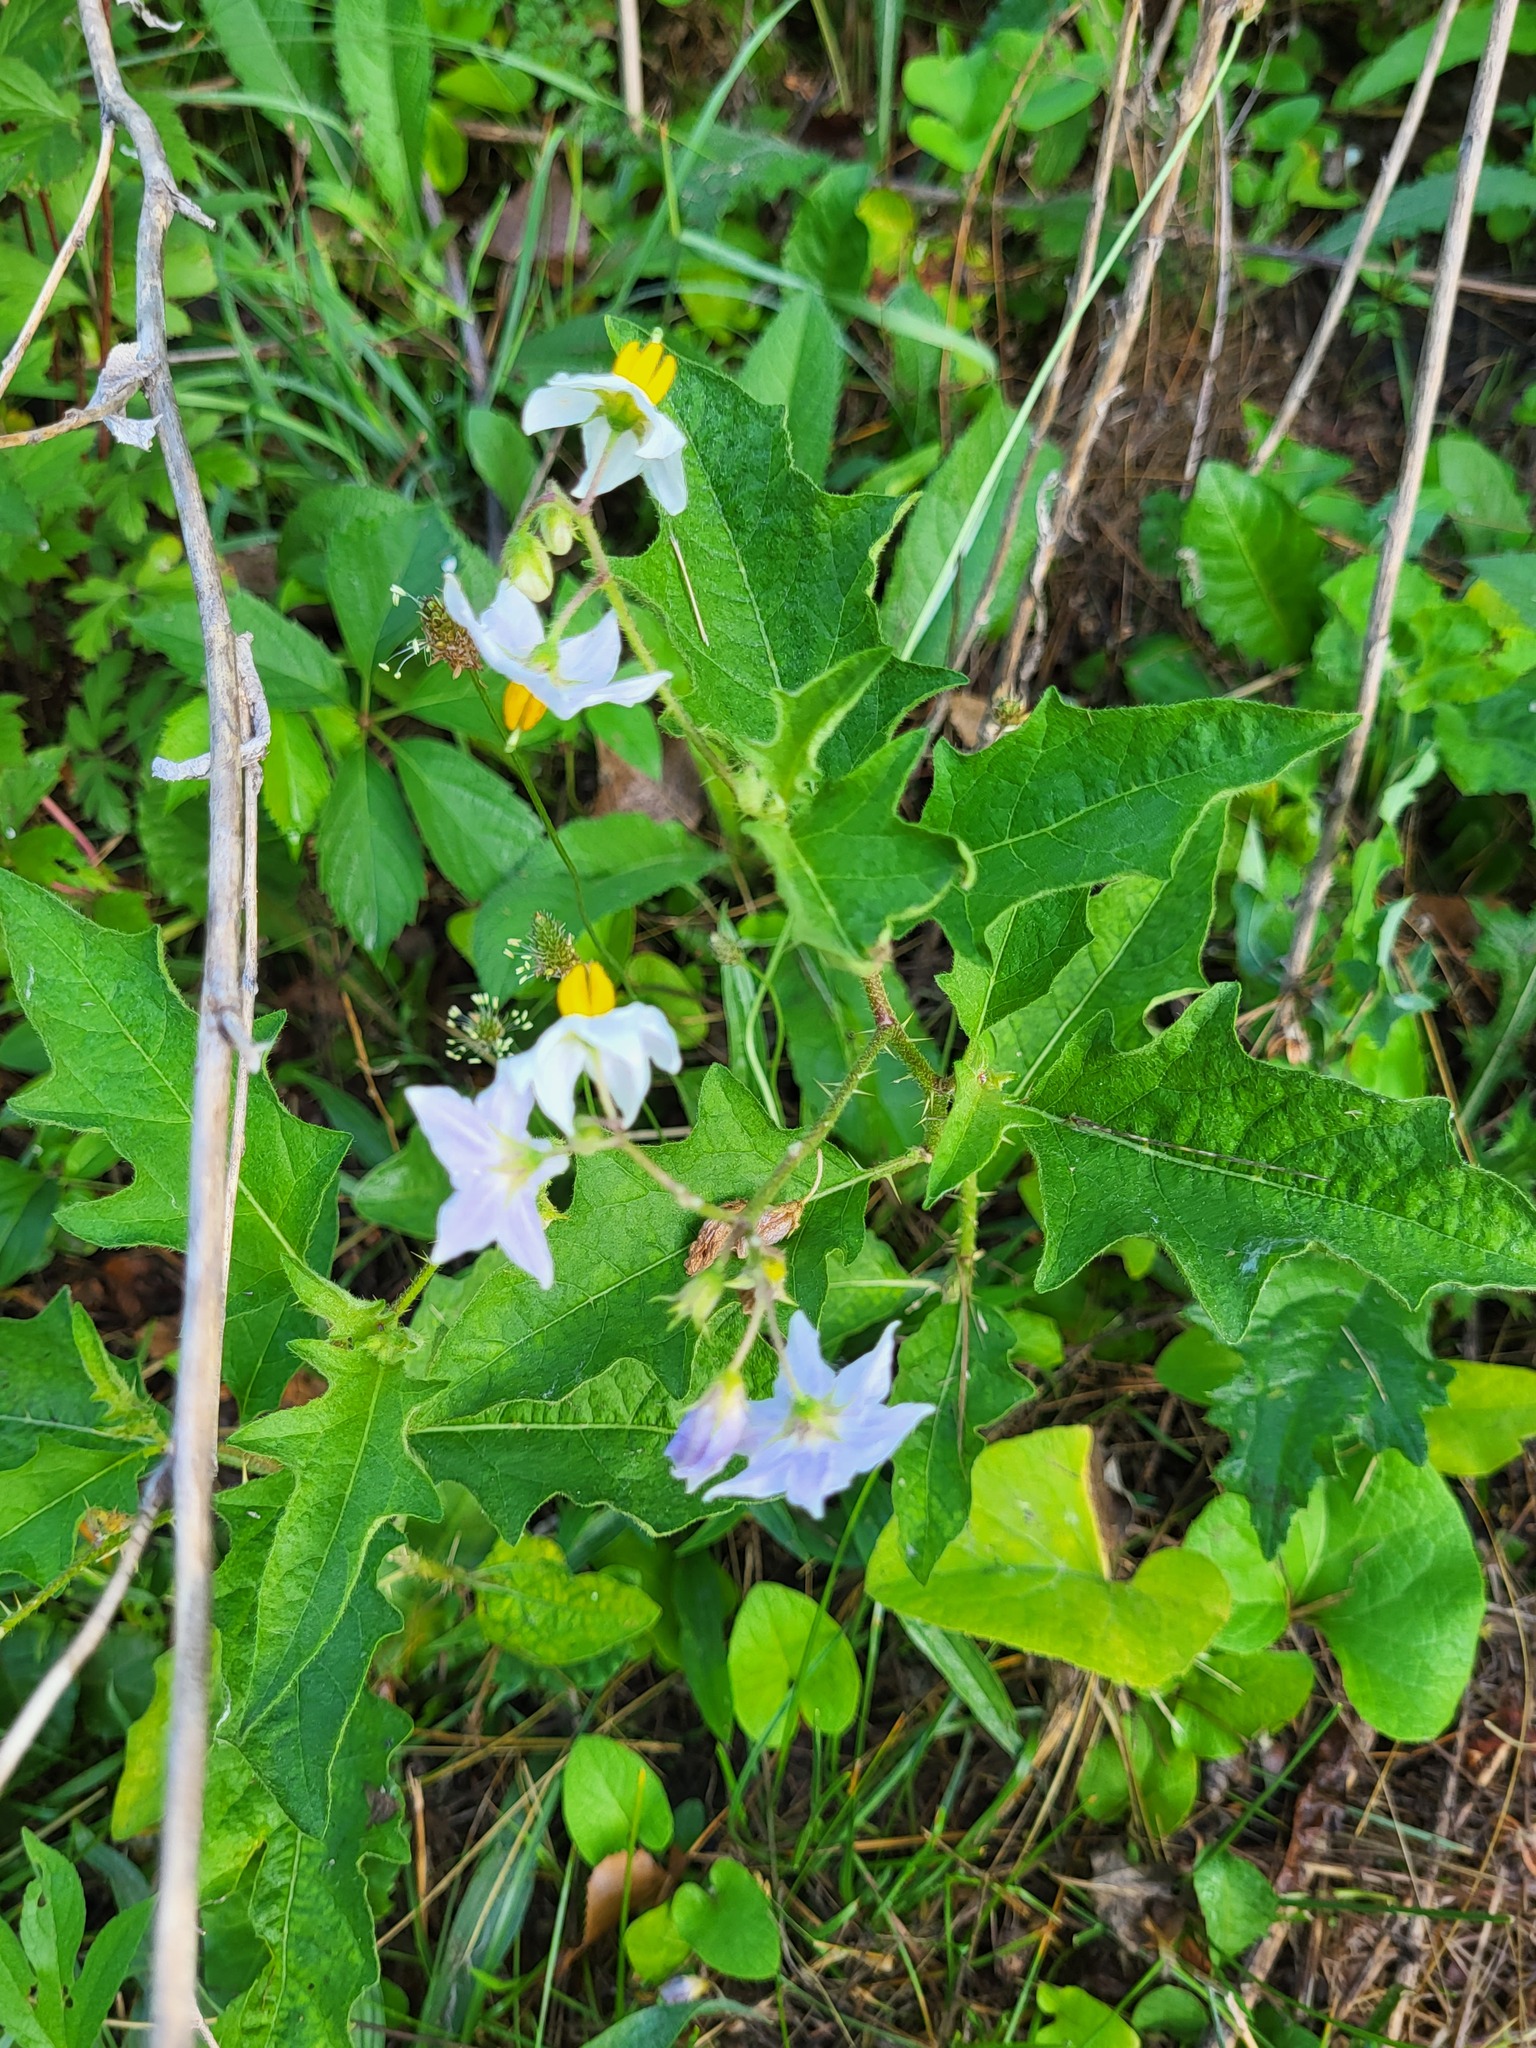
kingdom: Plantae
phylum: Tracheophyta
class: Magnoliopsida
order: Solanales
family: Solanaceae
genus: Solanum
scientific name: Solanum carolinense
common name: Horse-nettle
